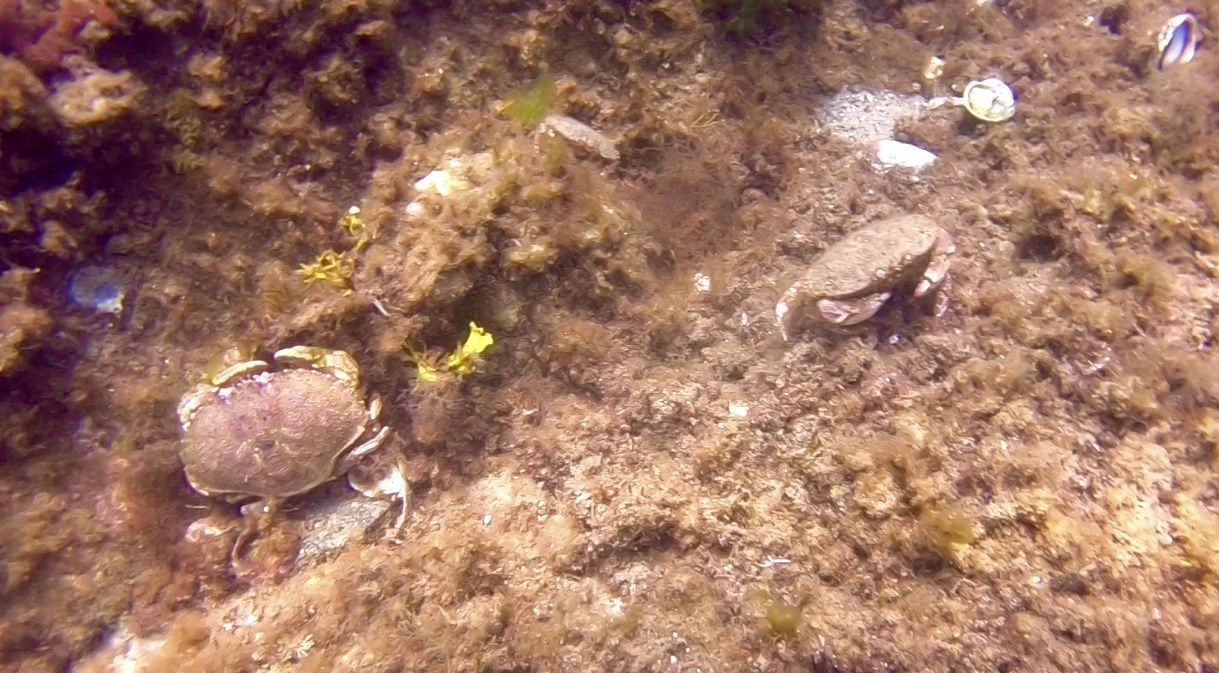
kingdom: Animalia
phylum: Arthropoda
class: Malacostraca
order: Decapoda
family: Cancridae
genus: Cancer
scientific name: Cancer borealis
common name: Jonah crab
